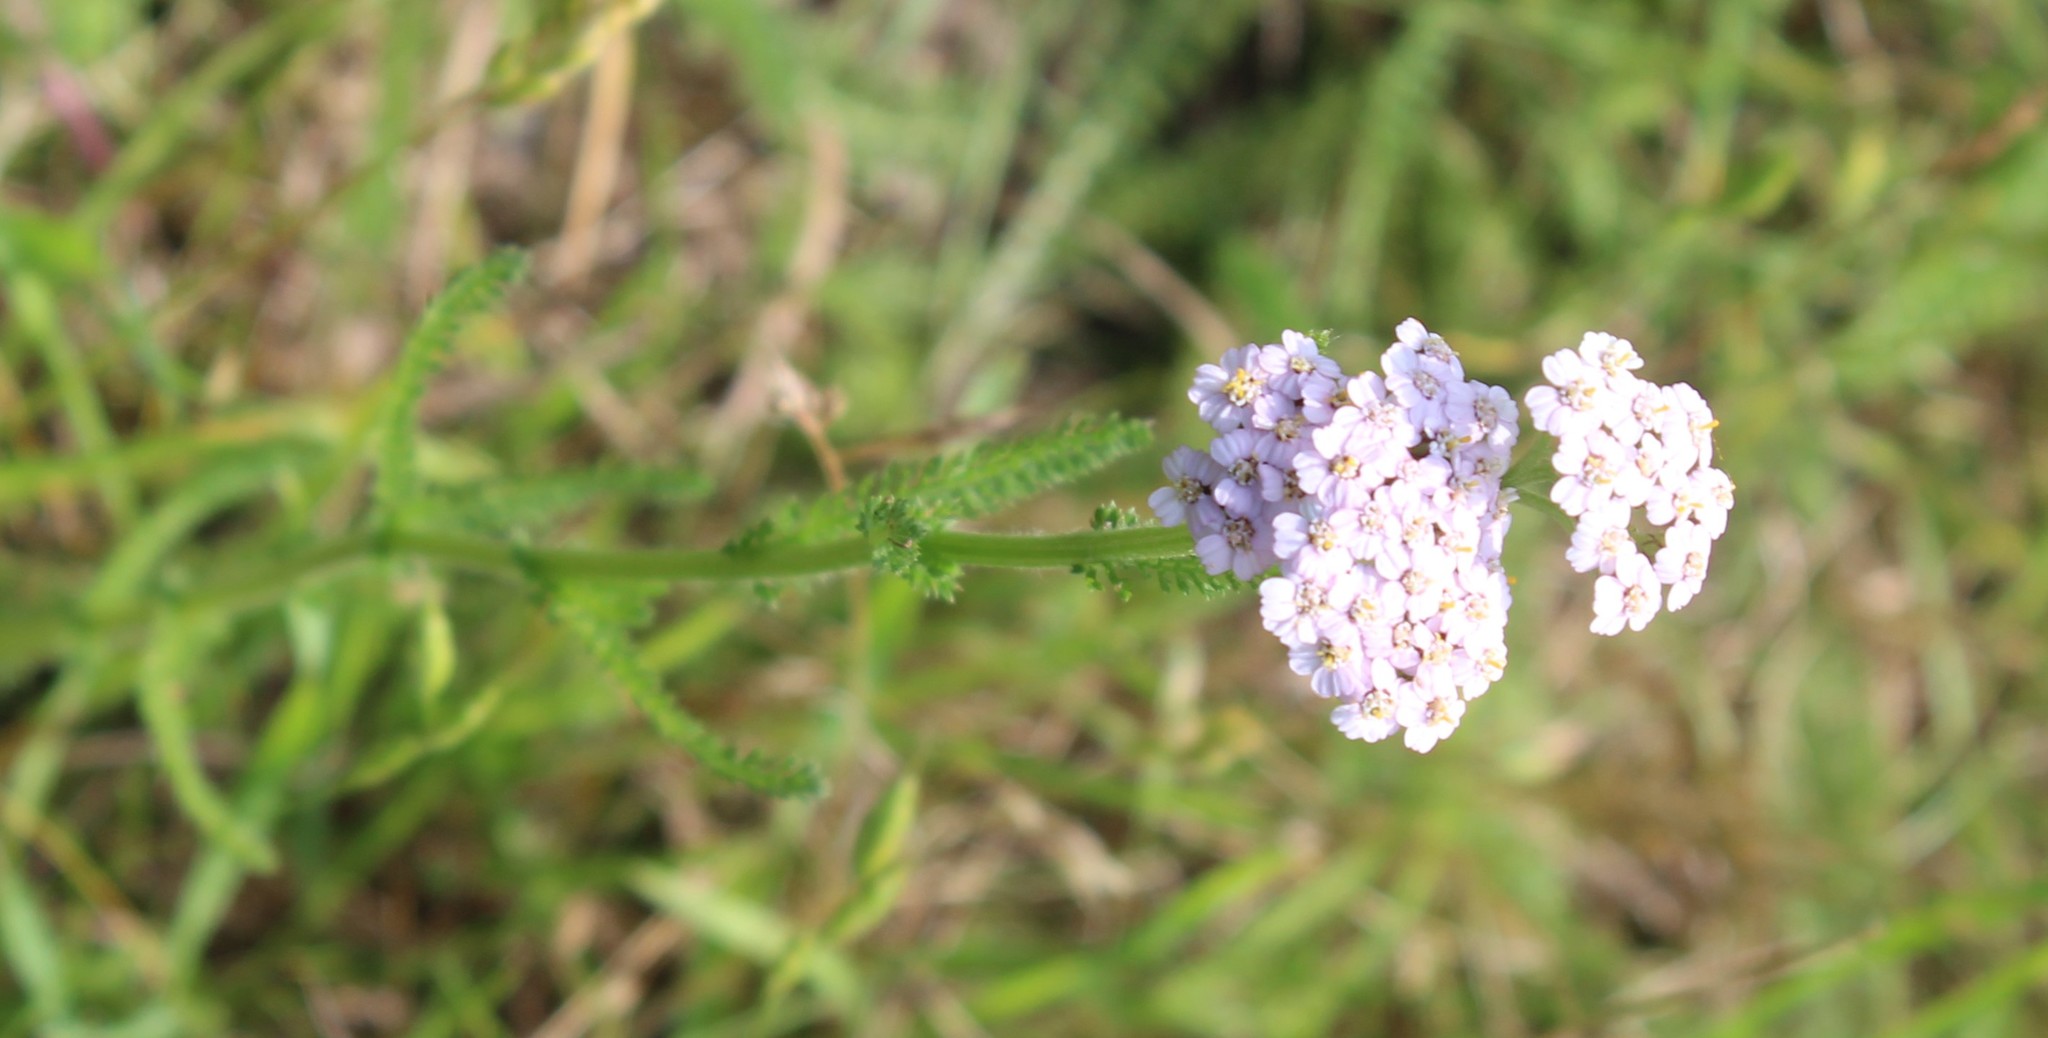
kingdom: Plantae
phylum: Tracheophyta
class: Magnoliopsida
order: Asterales
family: Asteraceae
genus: Achillea
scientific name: Achillea millefolium
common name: Yarrow
